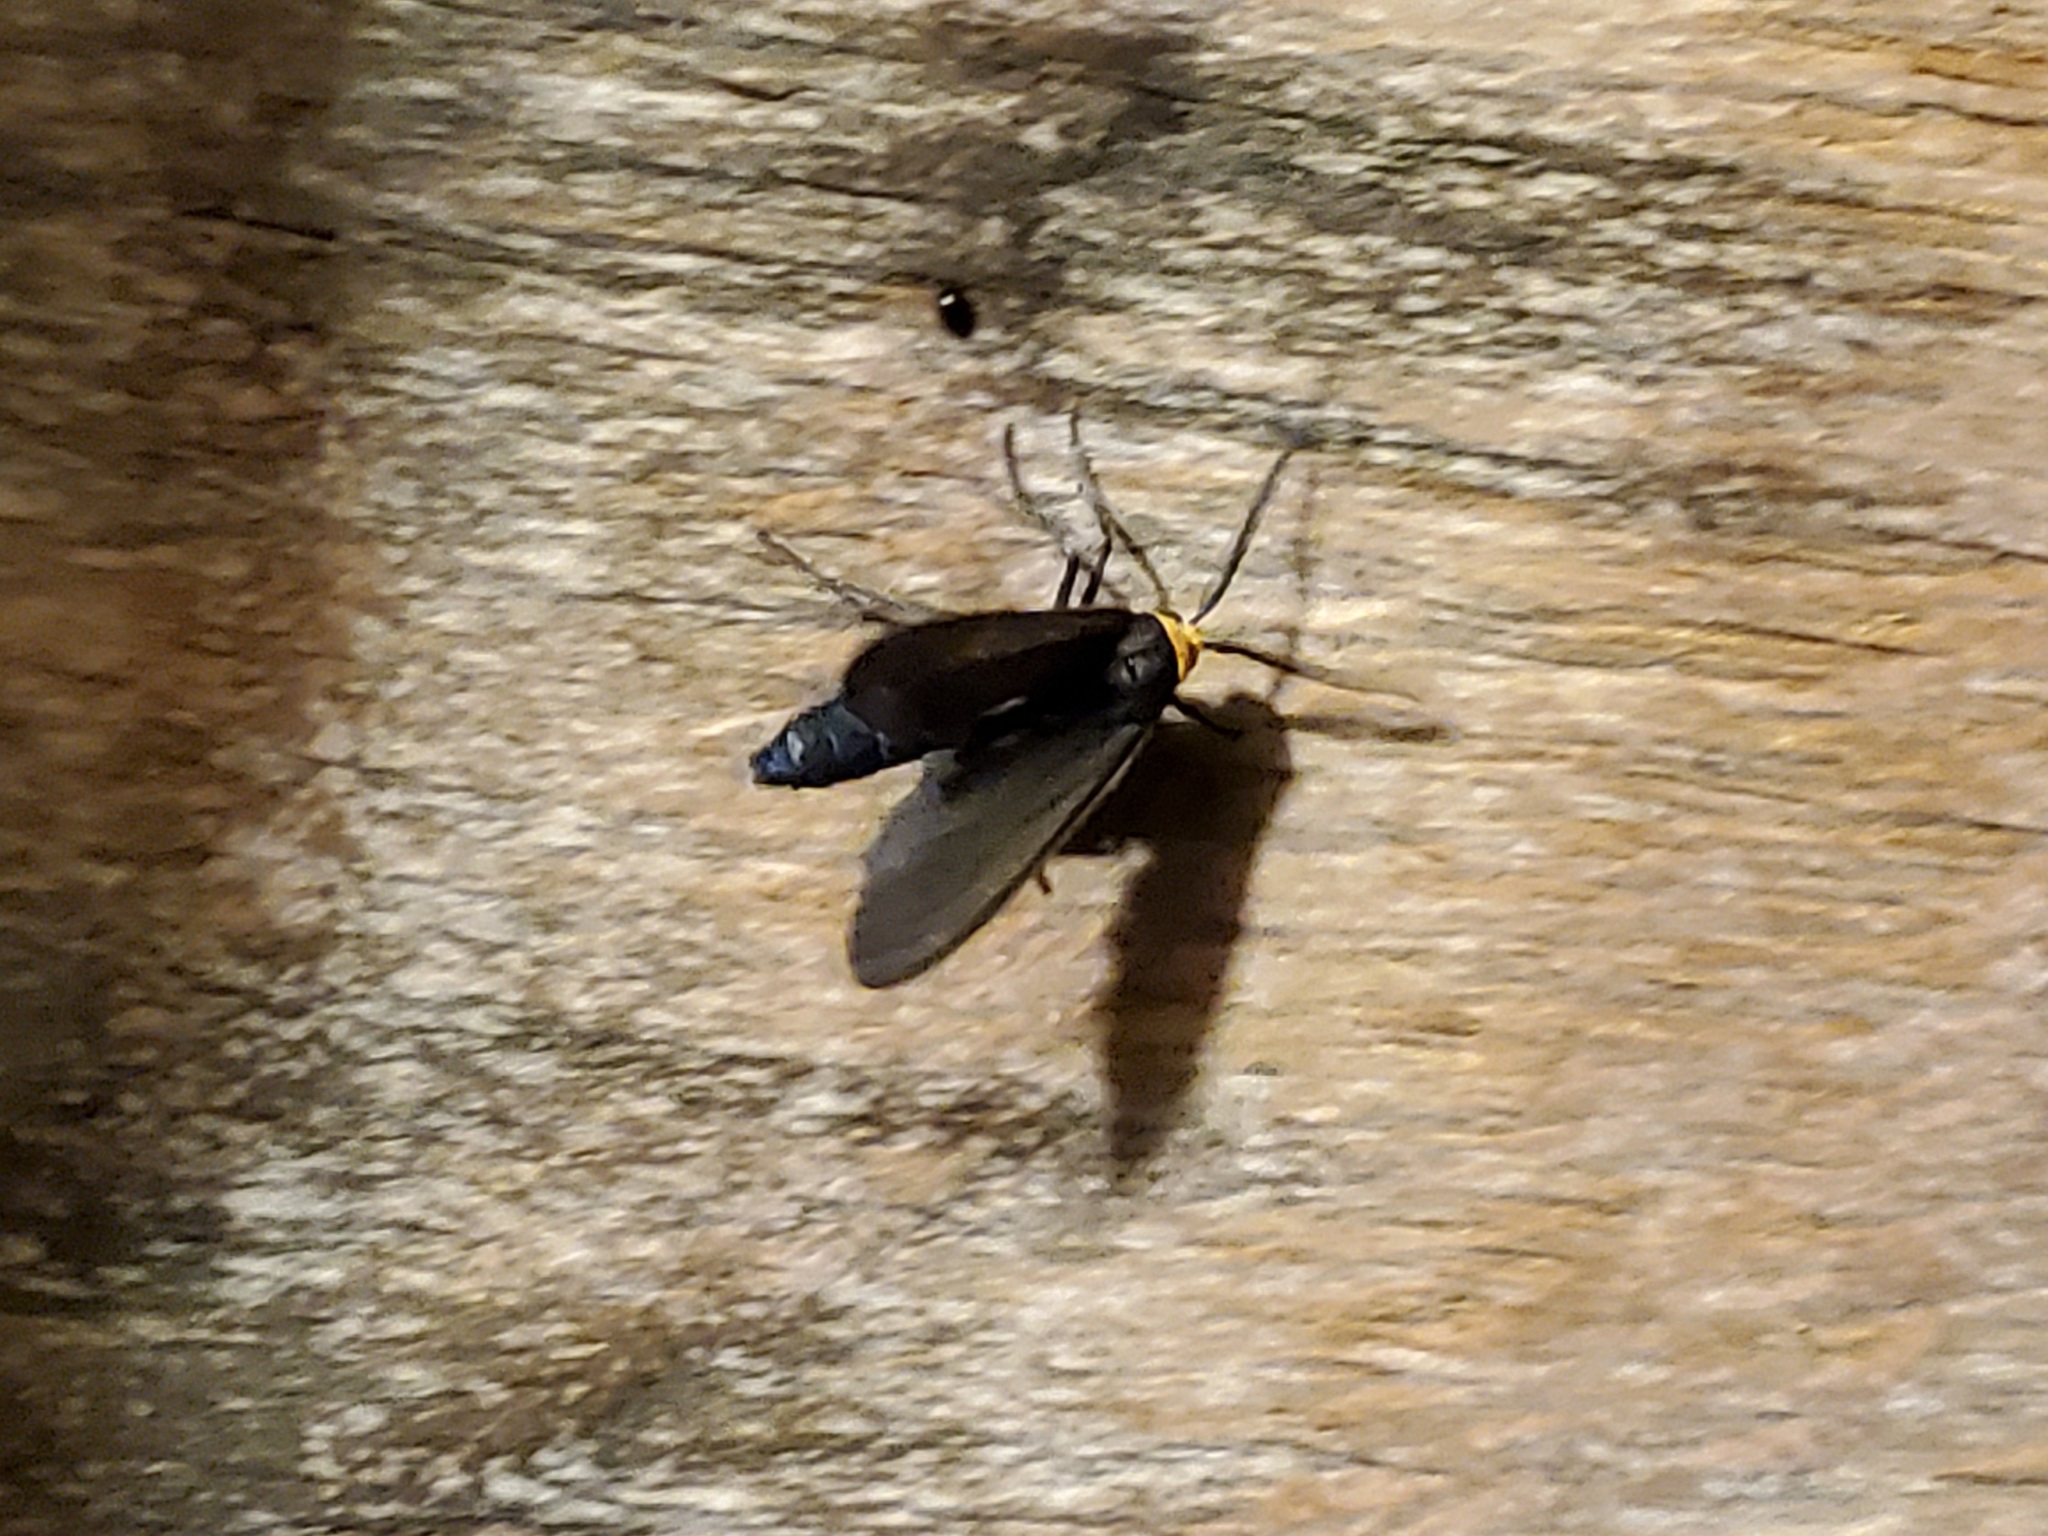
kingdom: Animalia
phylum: Arthropoda
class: Insecta
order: Lepidoptera
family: Erebidae
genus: Cisseps
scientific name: Cisseps fulvicollis
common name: Yellow-collared scape moth
